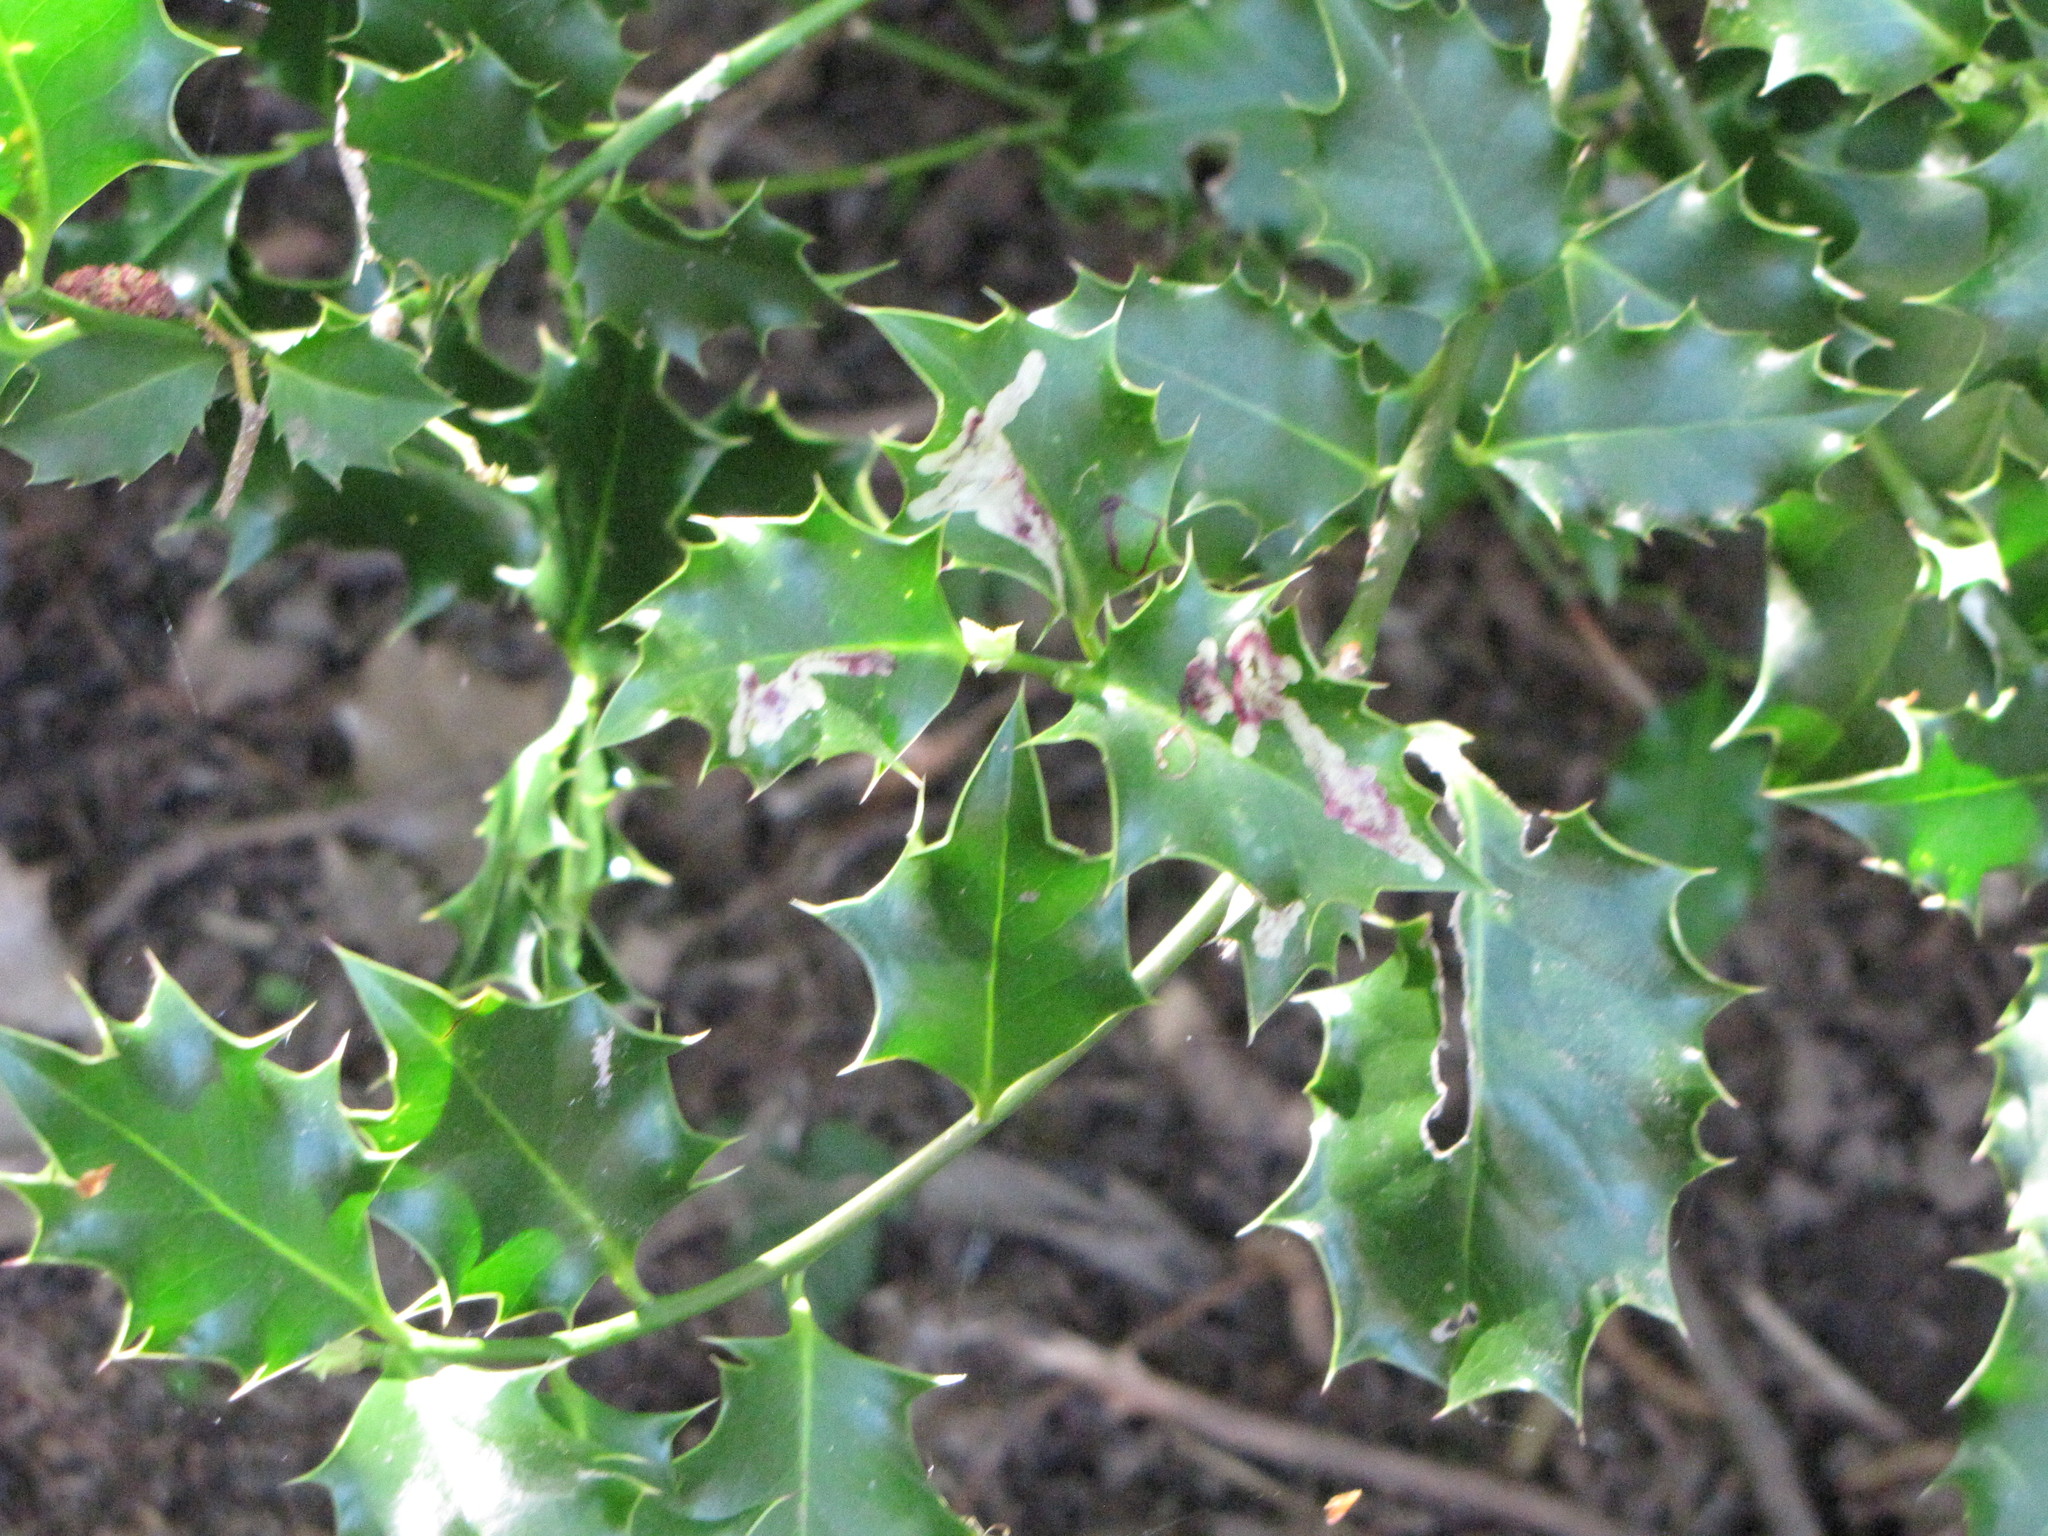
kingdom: Animalia
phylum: Arthropoda
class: Insecta
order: Diptera
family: Agromyzidae
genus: Phytomyza
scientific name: Phytomyza ilicis
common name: Holly leafminer
